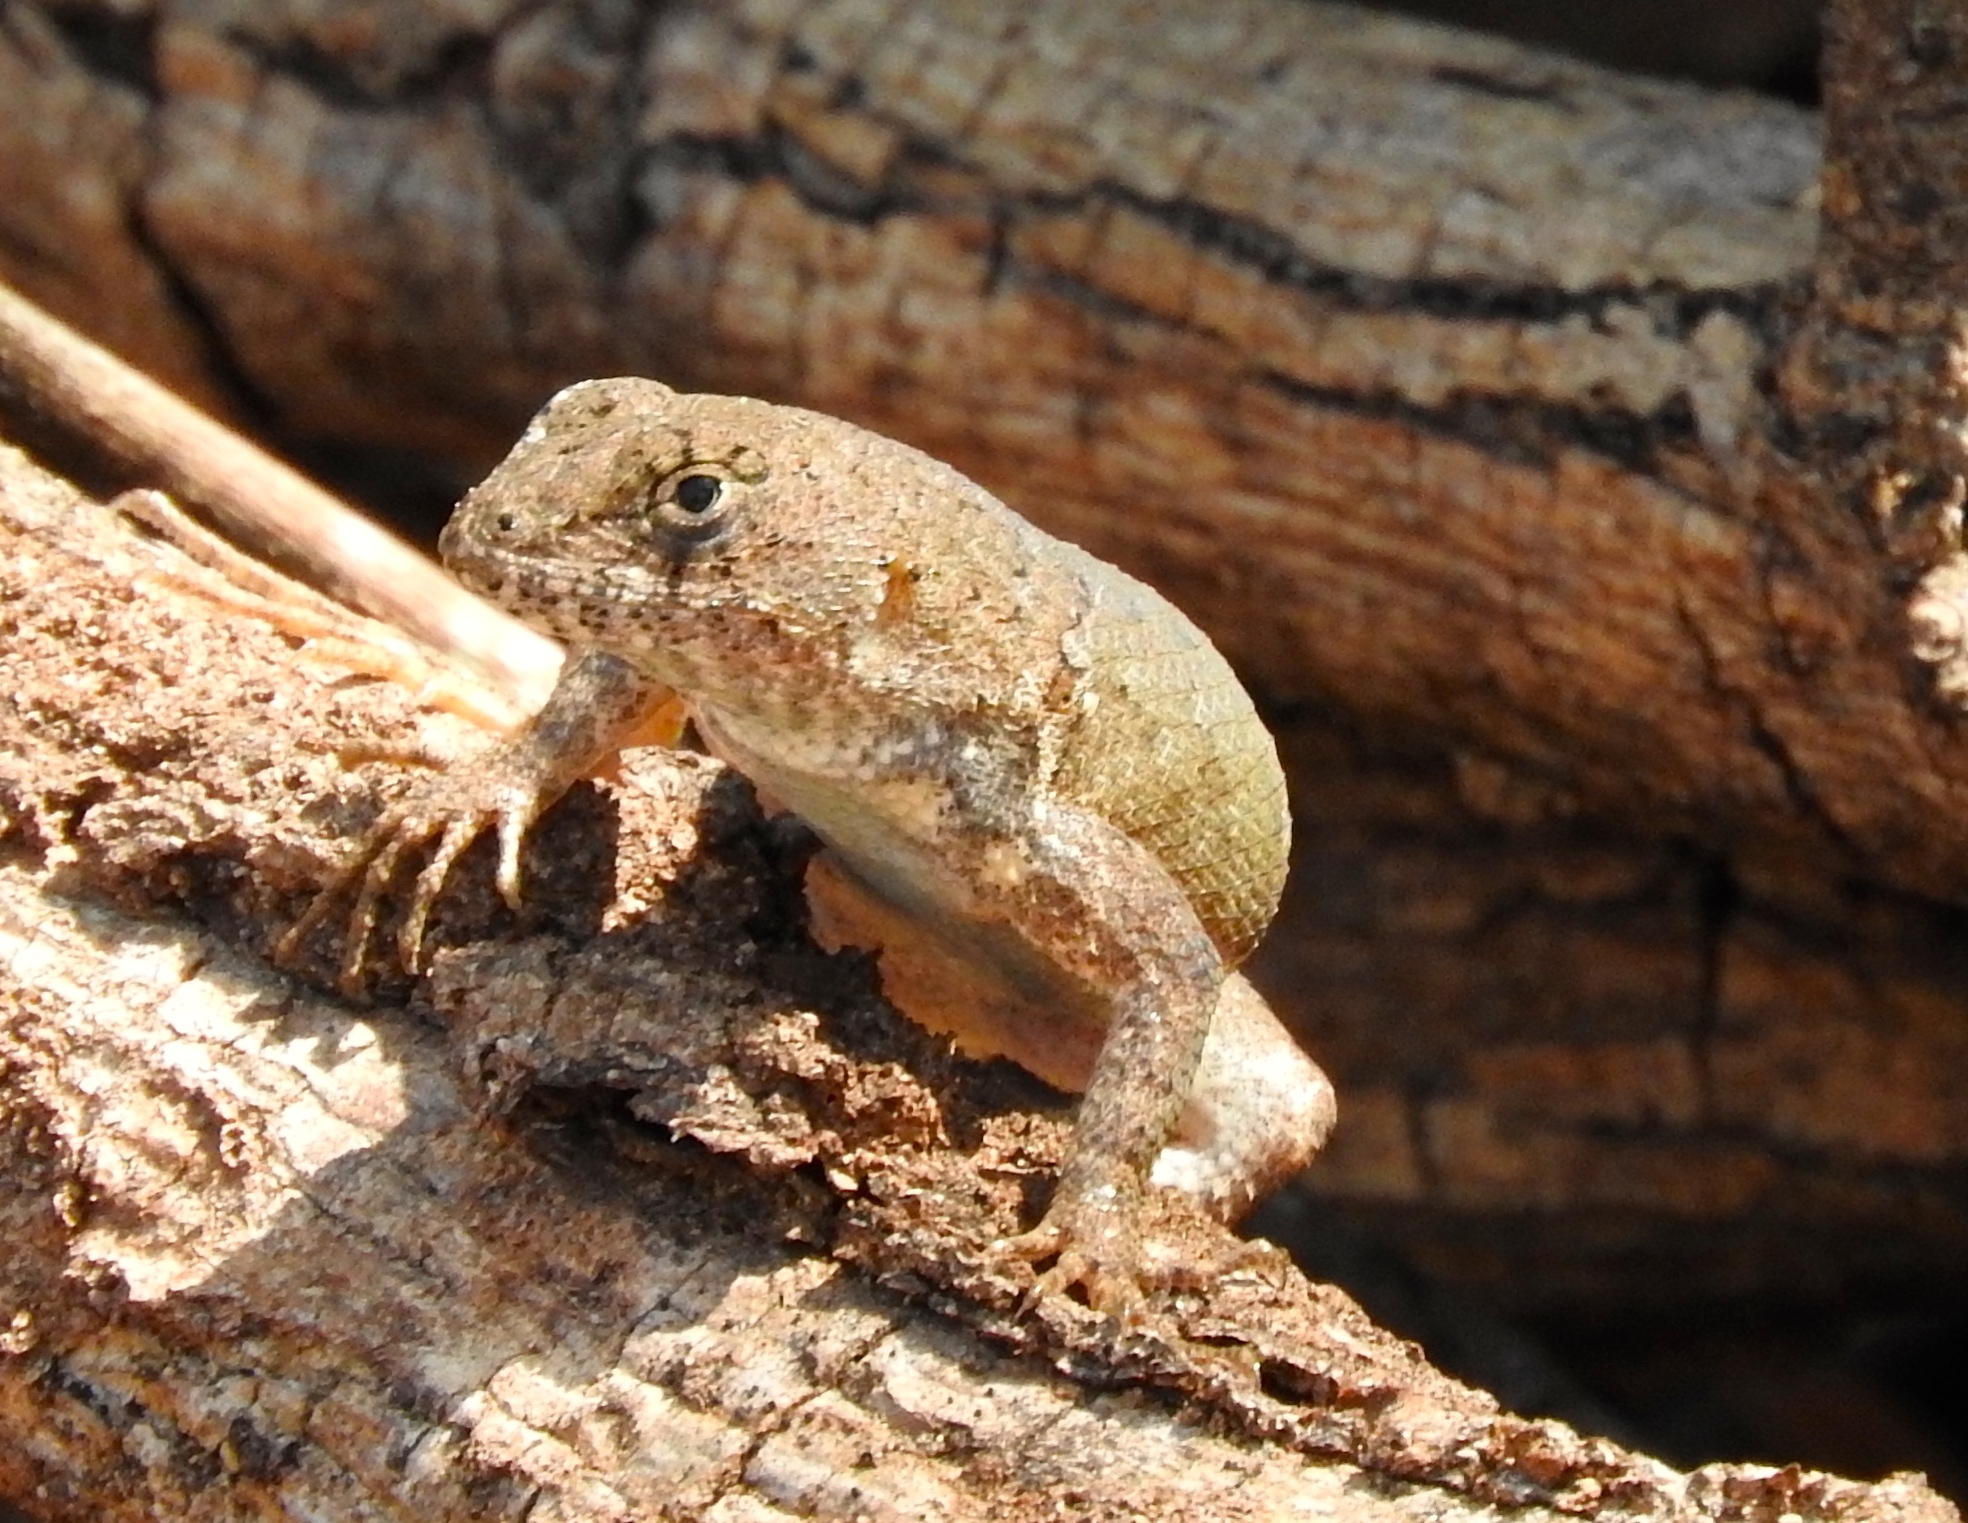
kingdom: Animalia
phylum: Chordata
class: Squamata
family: Phrynosomatidae
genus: Sceloporus
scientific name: Sceloporus nelsoni
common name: Nelson's spiny lizard
